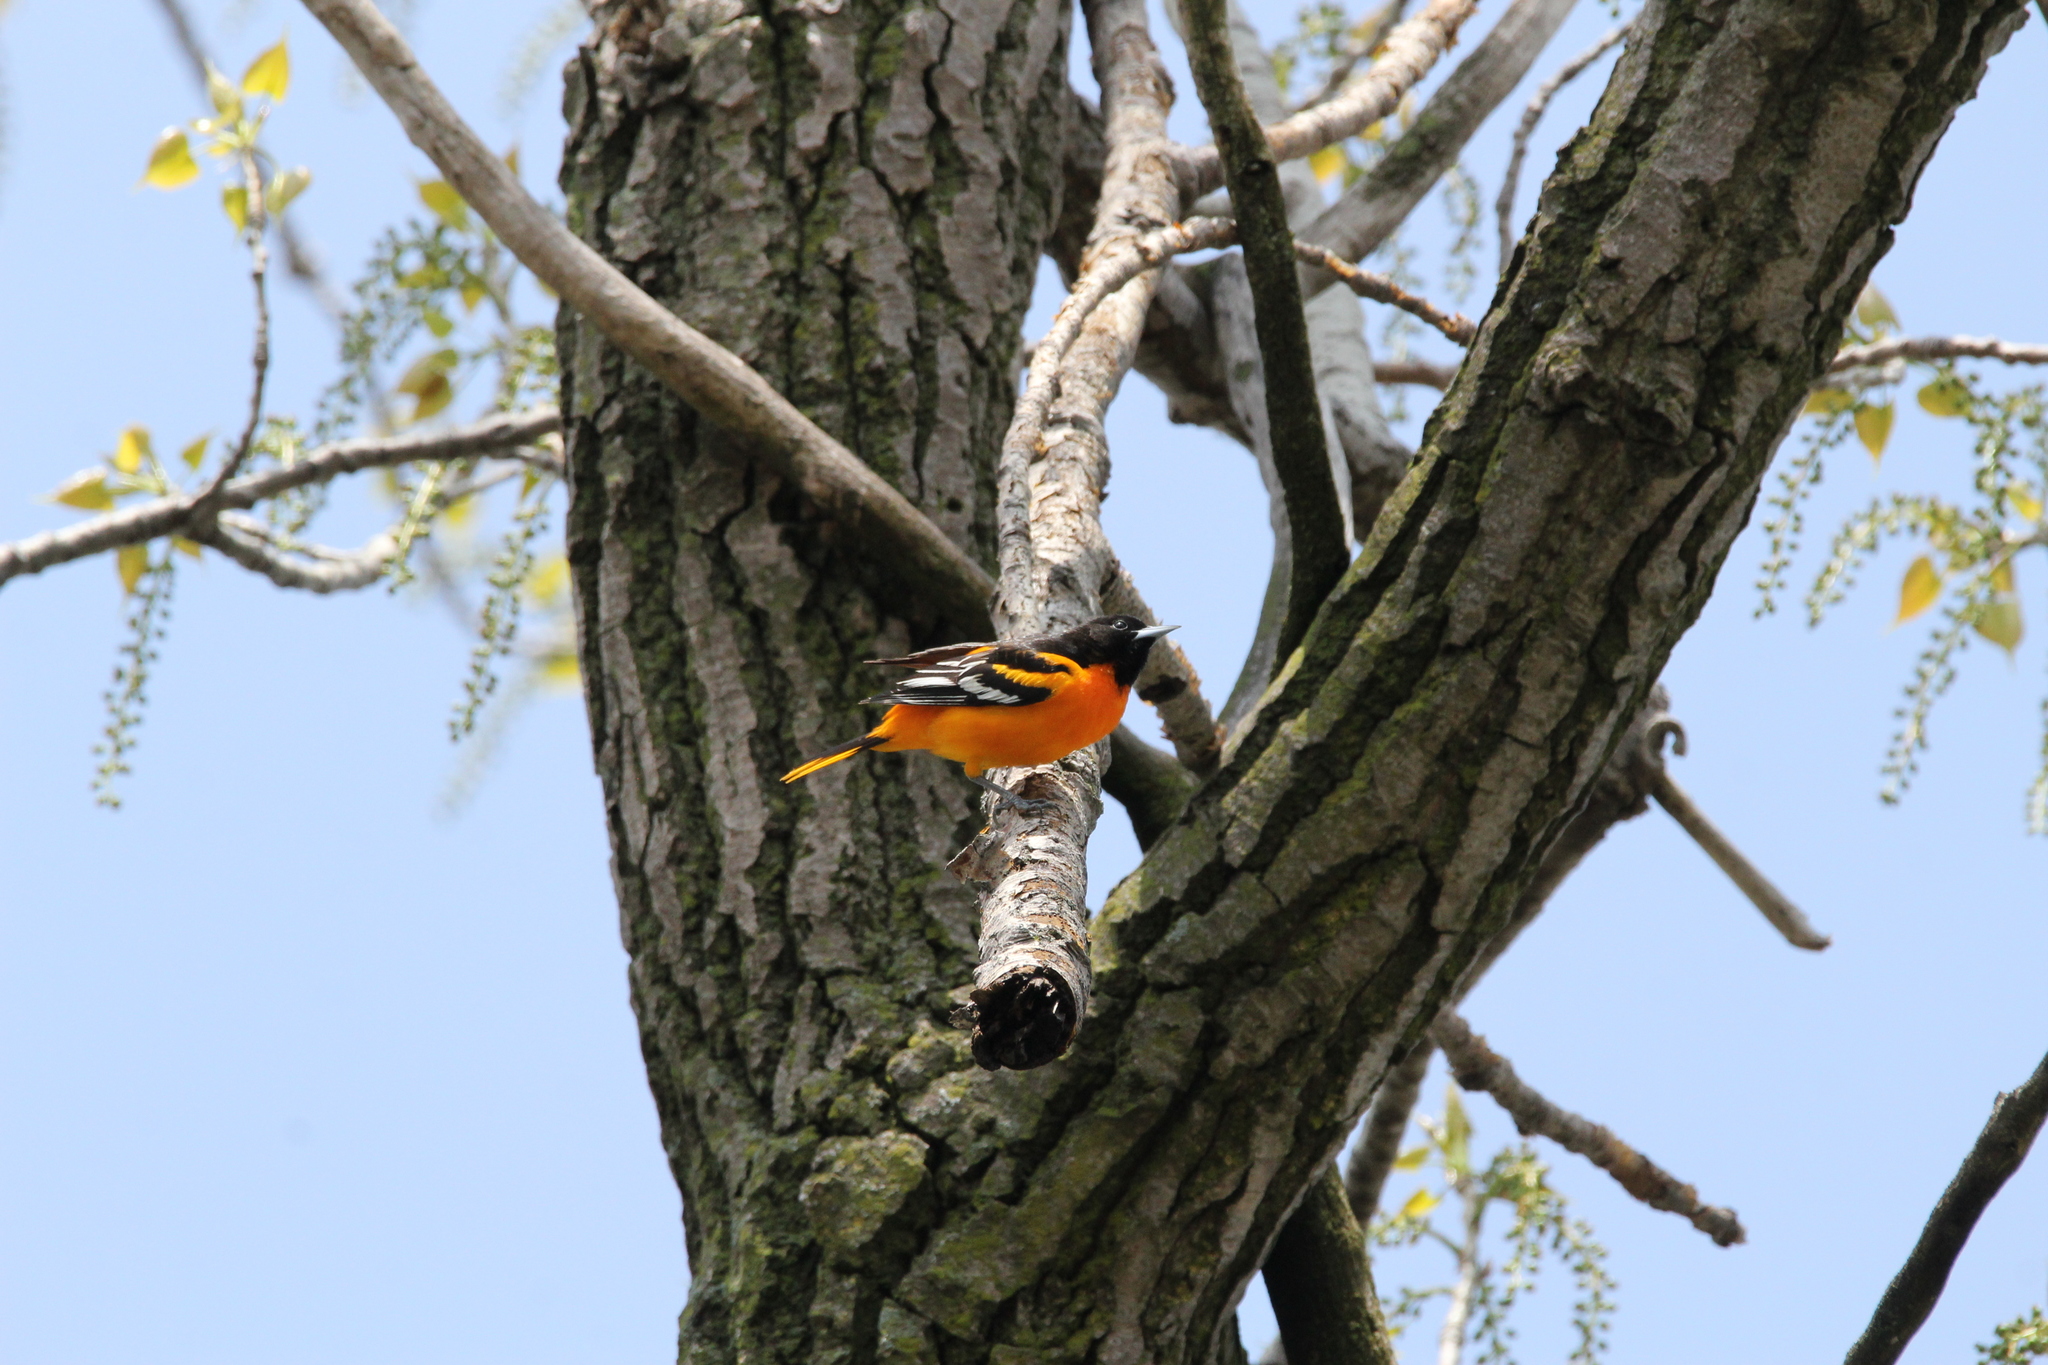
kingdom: Animalia
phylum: Chordata
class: Aves
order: Passeriformes
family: Icteridae
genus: Icterus
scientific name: Icterus galbula
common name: Baltimore oriole
